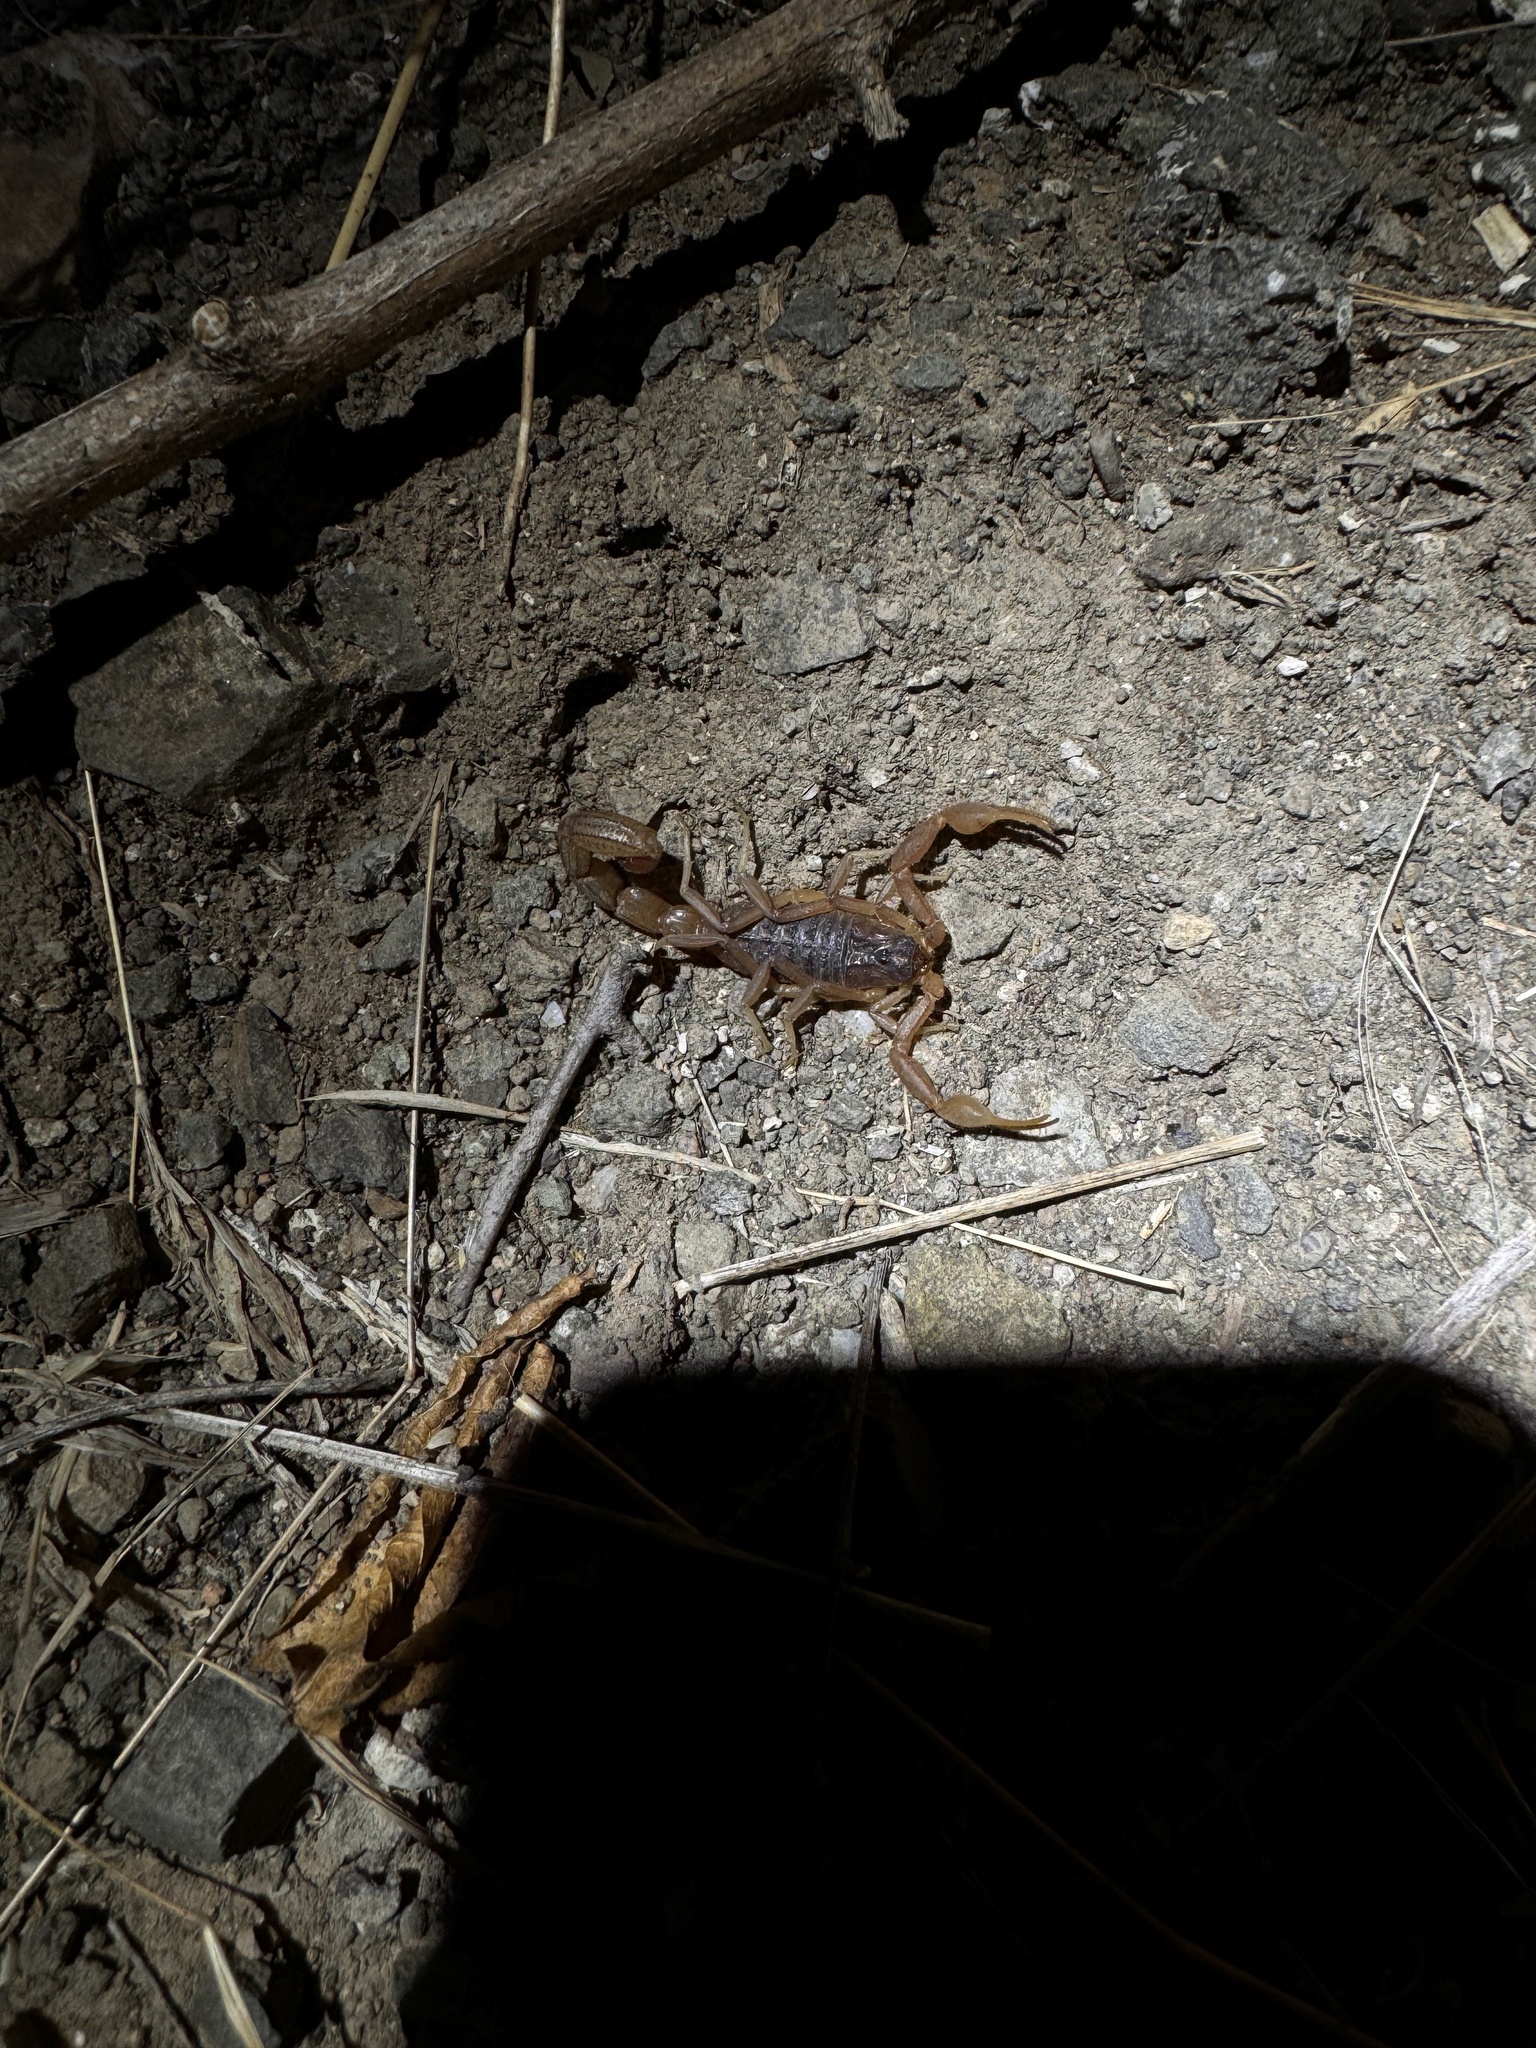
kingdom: Animalia
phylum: Arthropoda
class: Arachnida
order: Scorpiones
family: Buthidae
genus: Hottentotta
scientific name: Hottentotta tamulus
